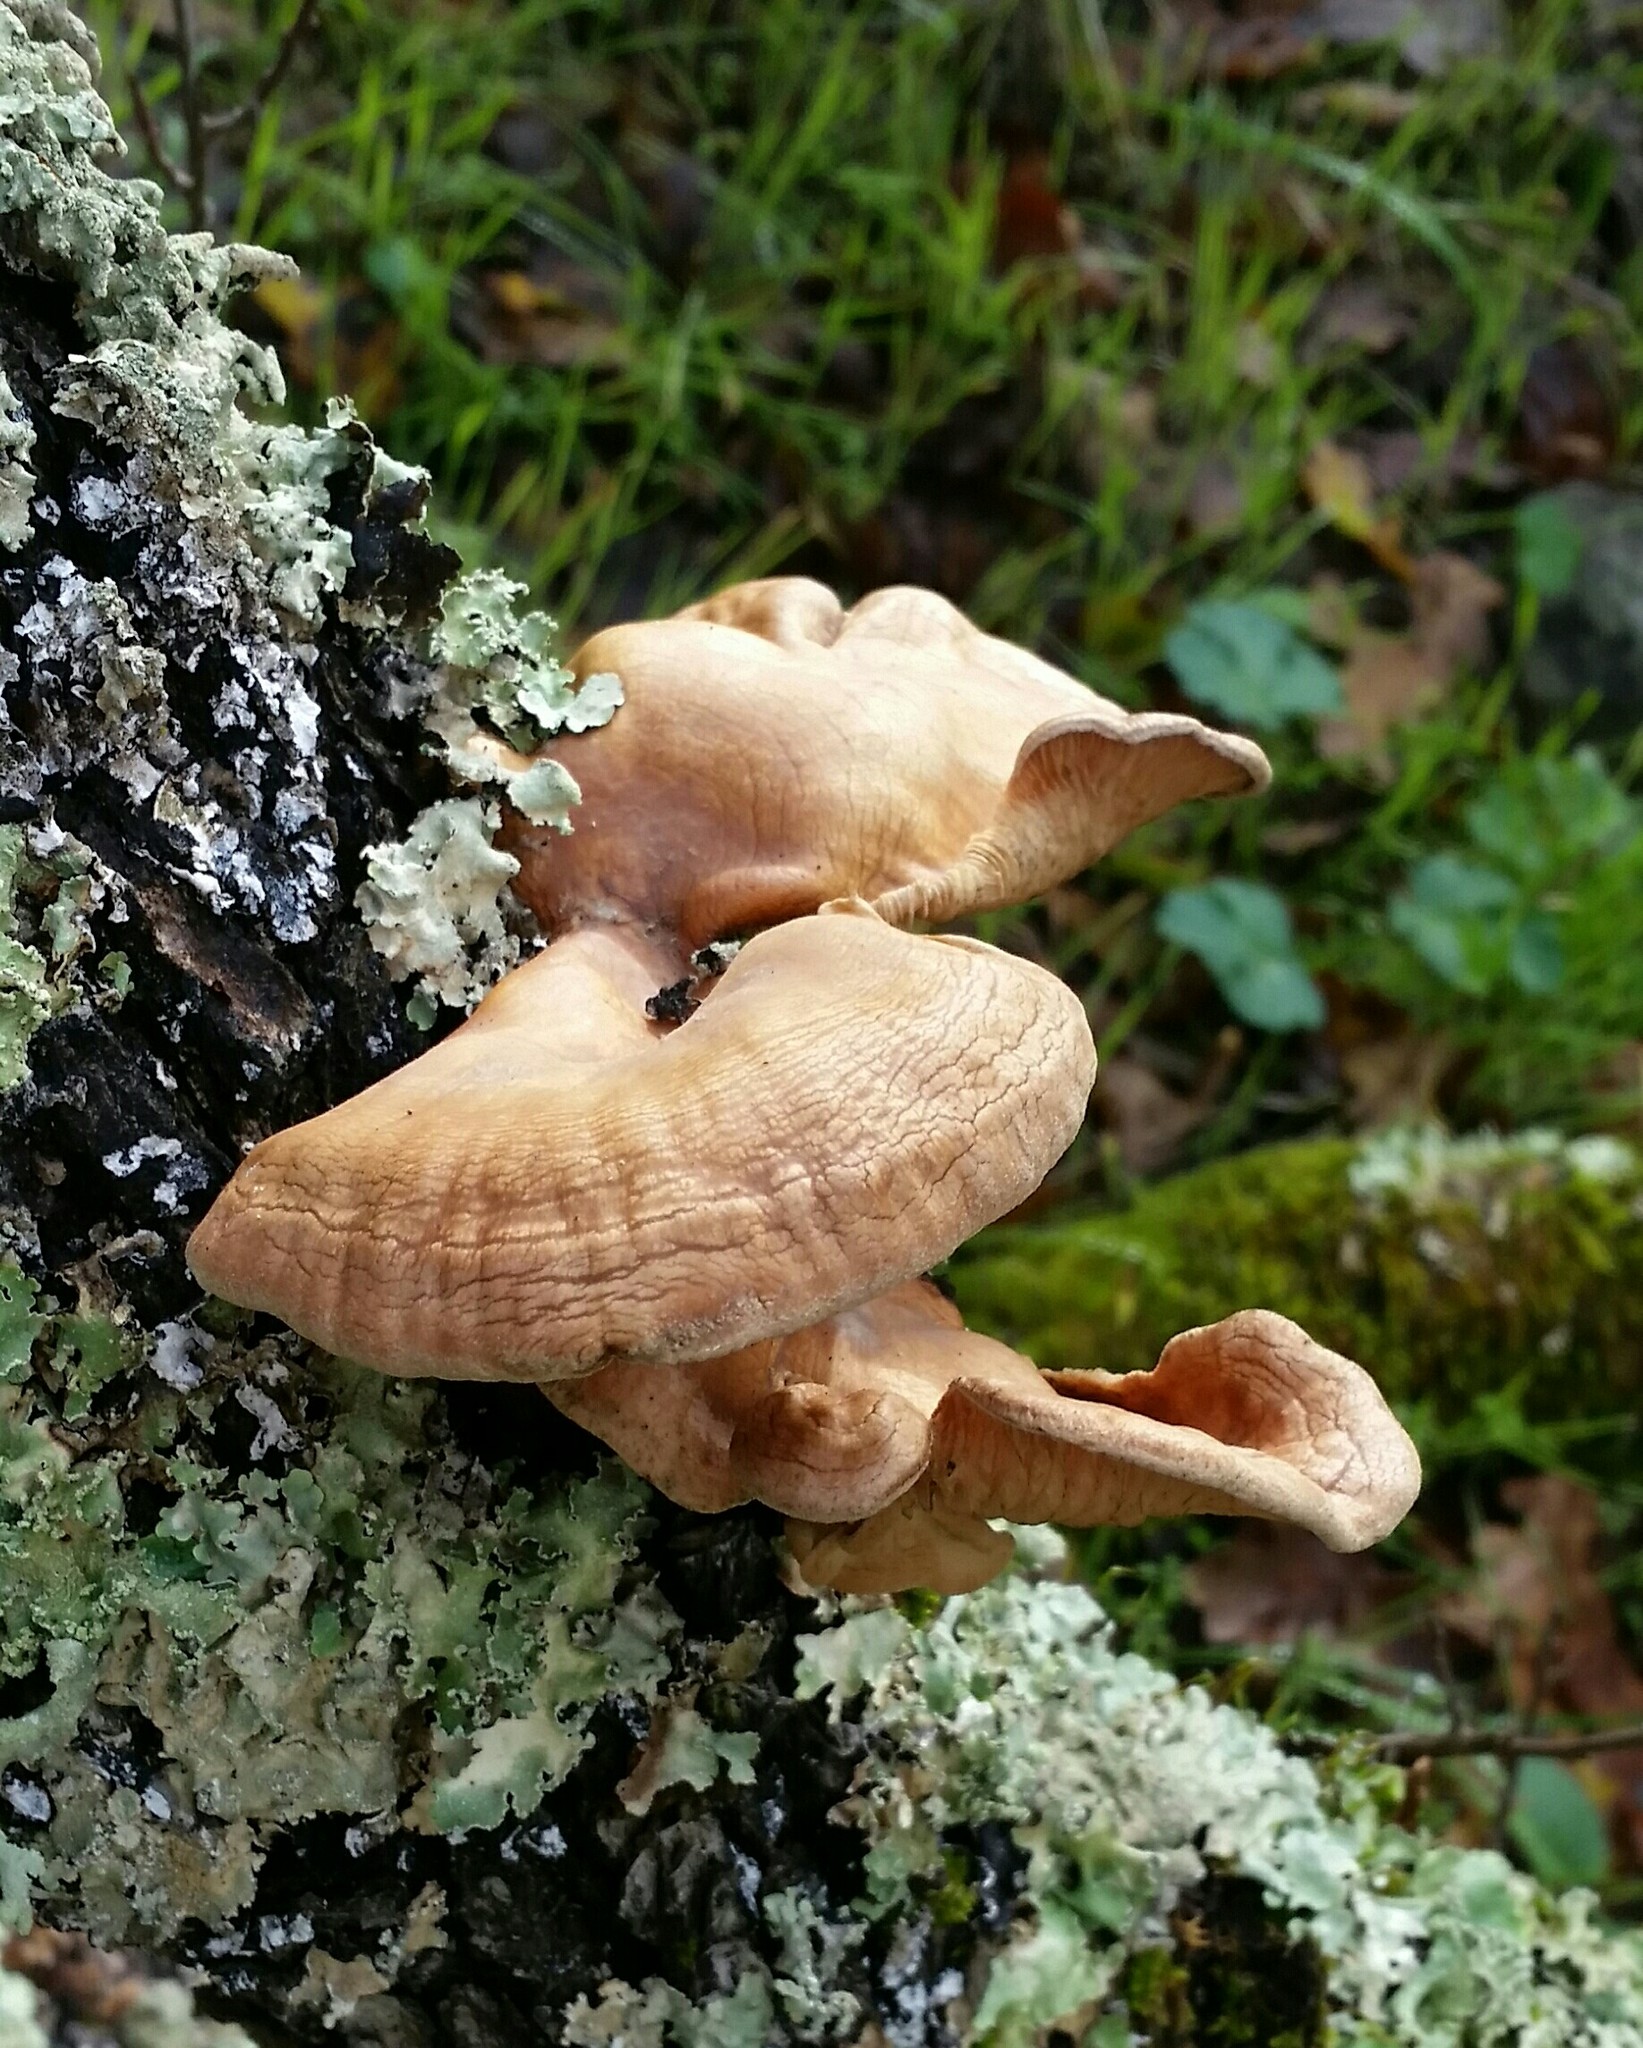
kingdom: Fungi
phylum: Basidiomycota
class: Agaricomycetes
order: Polyporales
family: Panaceae
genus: Panus
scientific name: Panus conchatus
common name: Lilac oysterling
